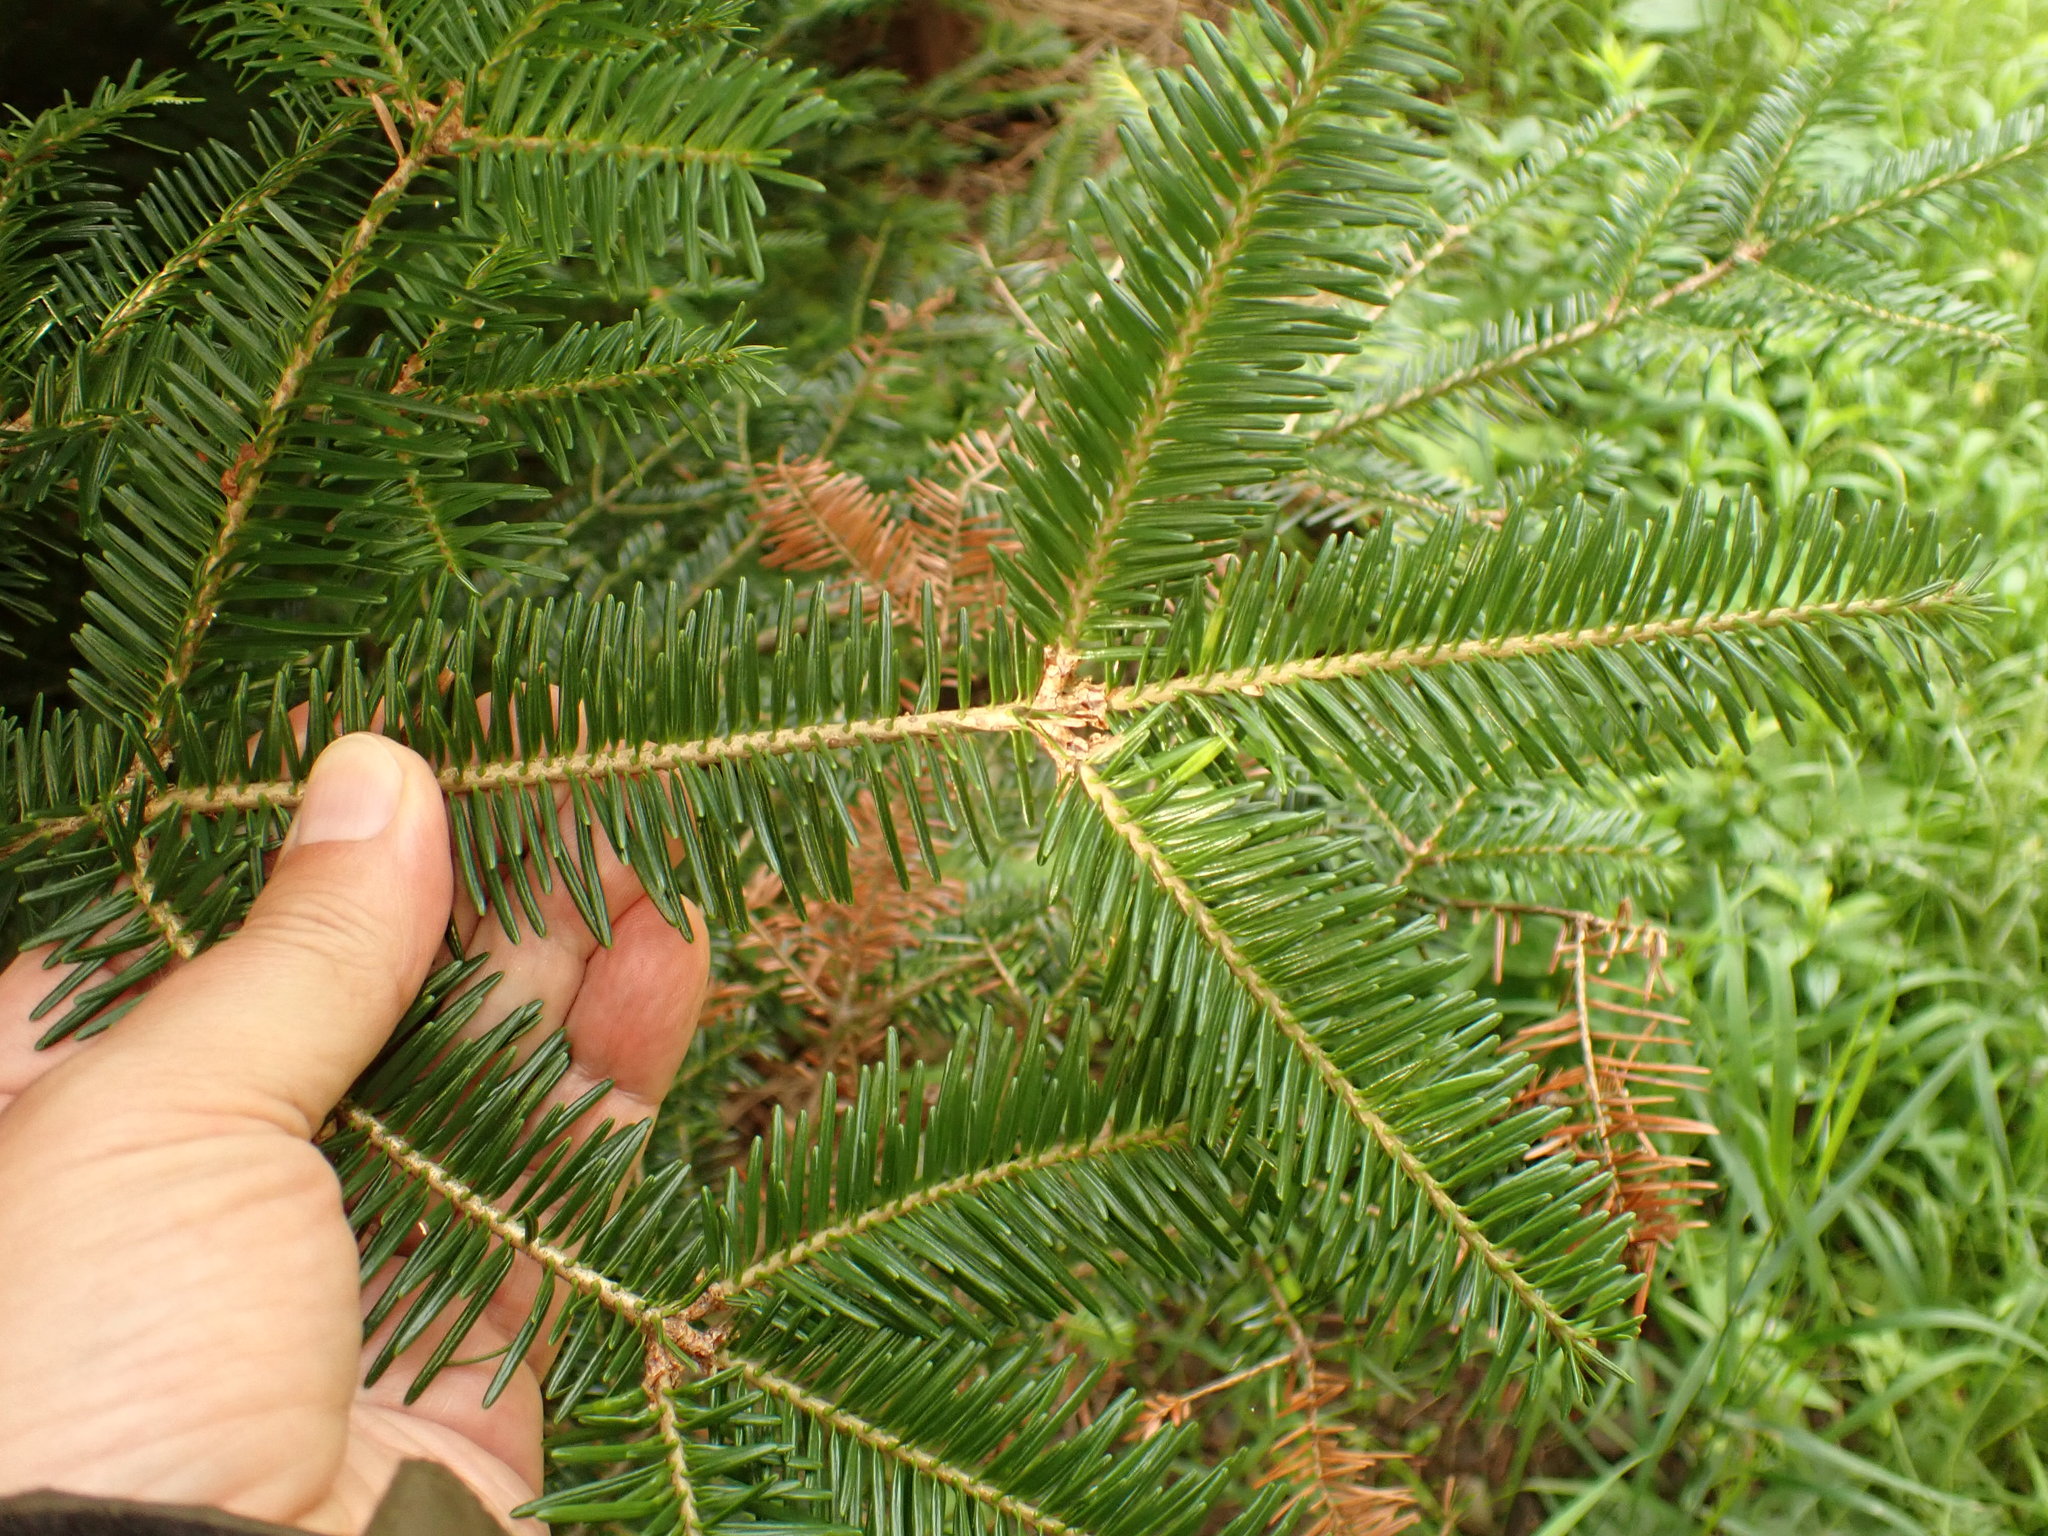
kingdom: Plantae
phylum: Tracheophyta
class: Pinopsida
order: Pinales
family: Pinaceae
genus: Abies
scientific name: Abies balsamea
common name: Balsam fir
